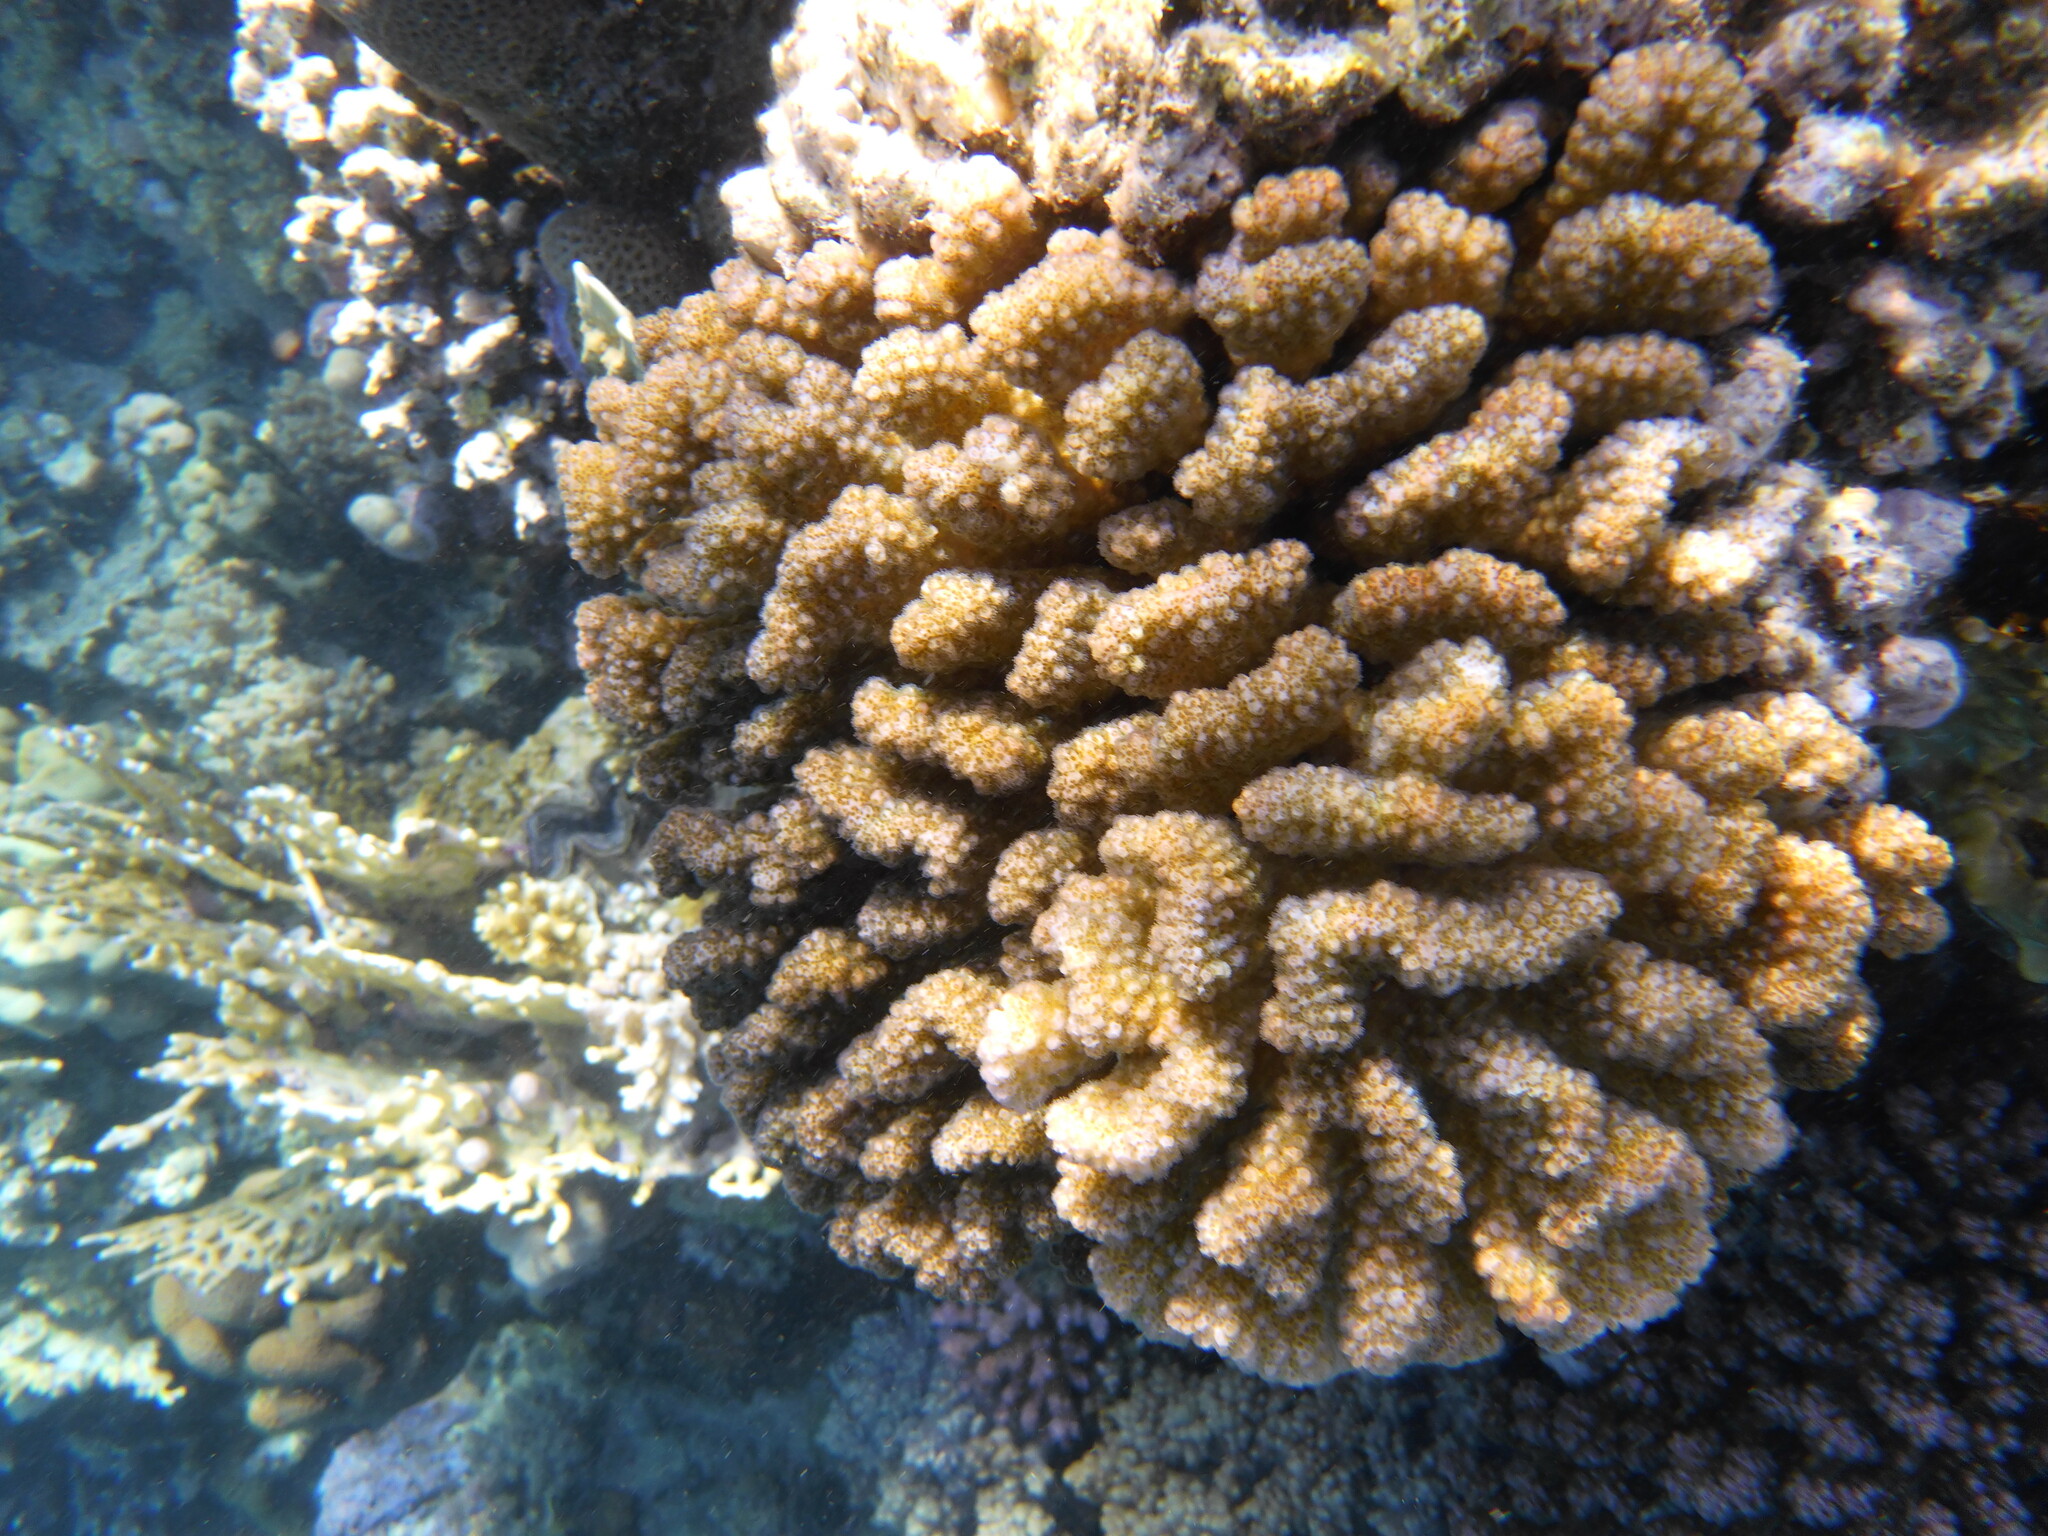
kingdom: Animalia
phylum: Cnidaria
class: Anthozoa
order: Scleractinia
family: Pocilloporidae
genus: Pocillopora
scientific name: Pocillopora verrucosa
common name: Cauliflower coral
